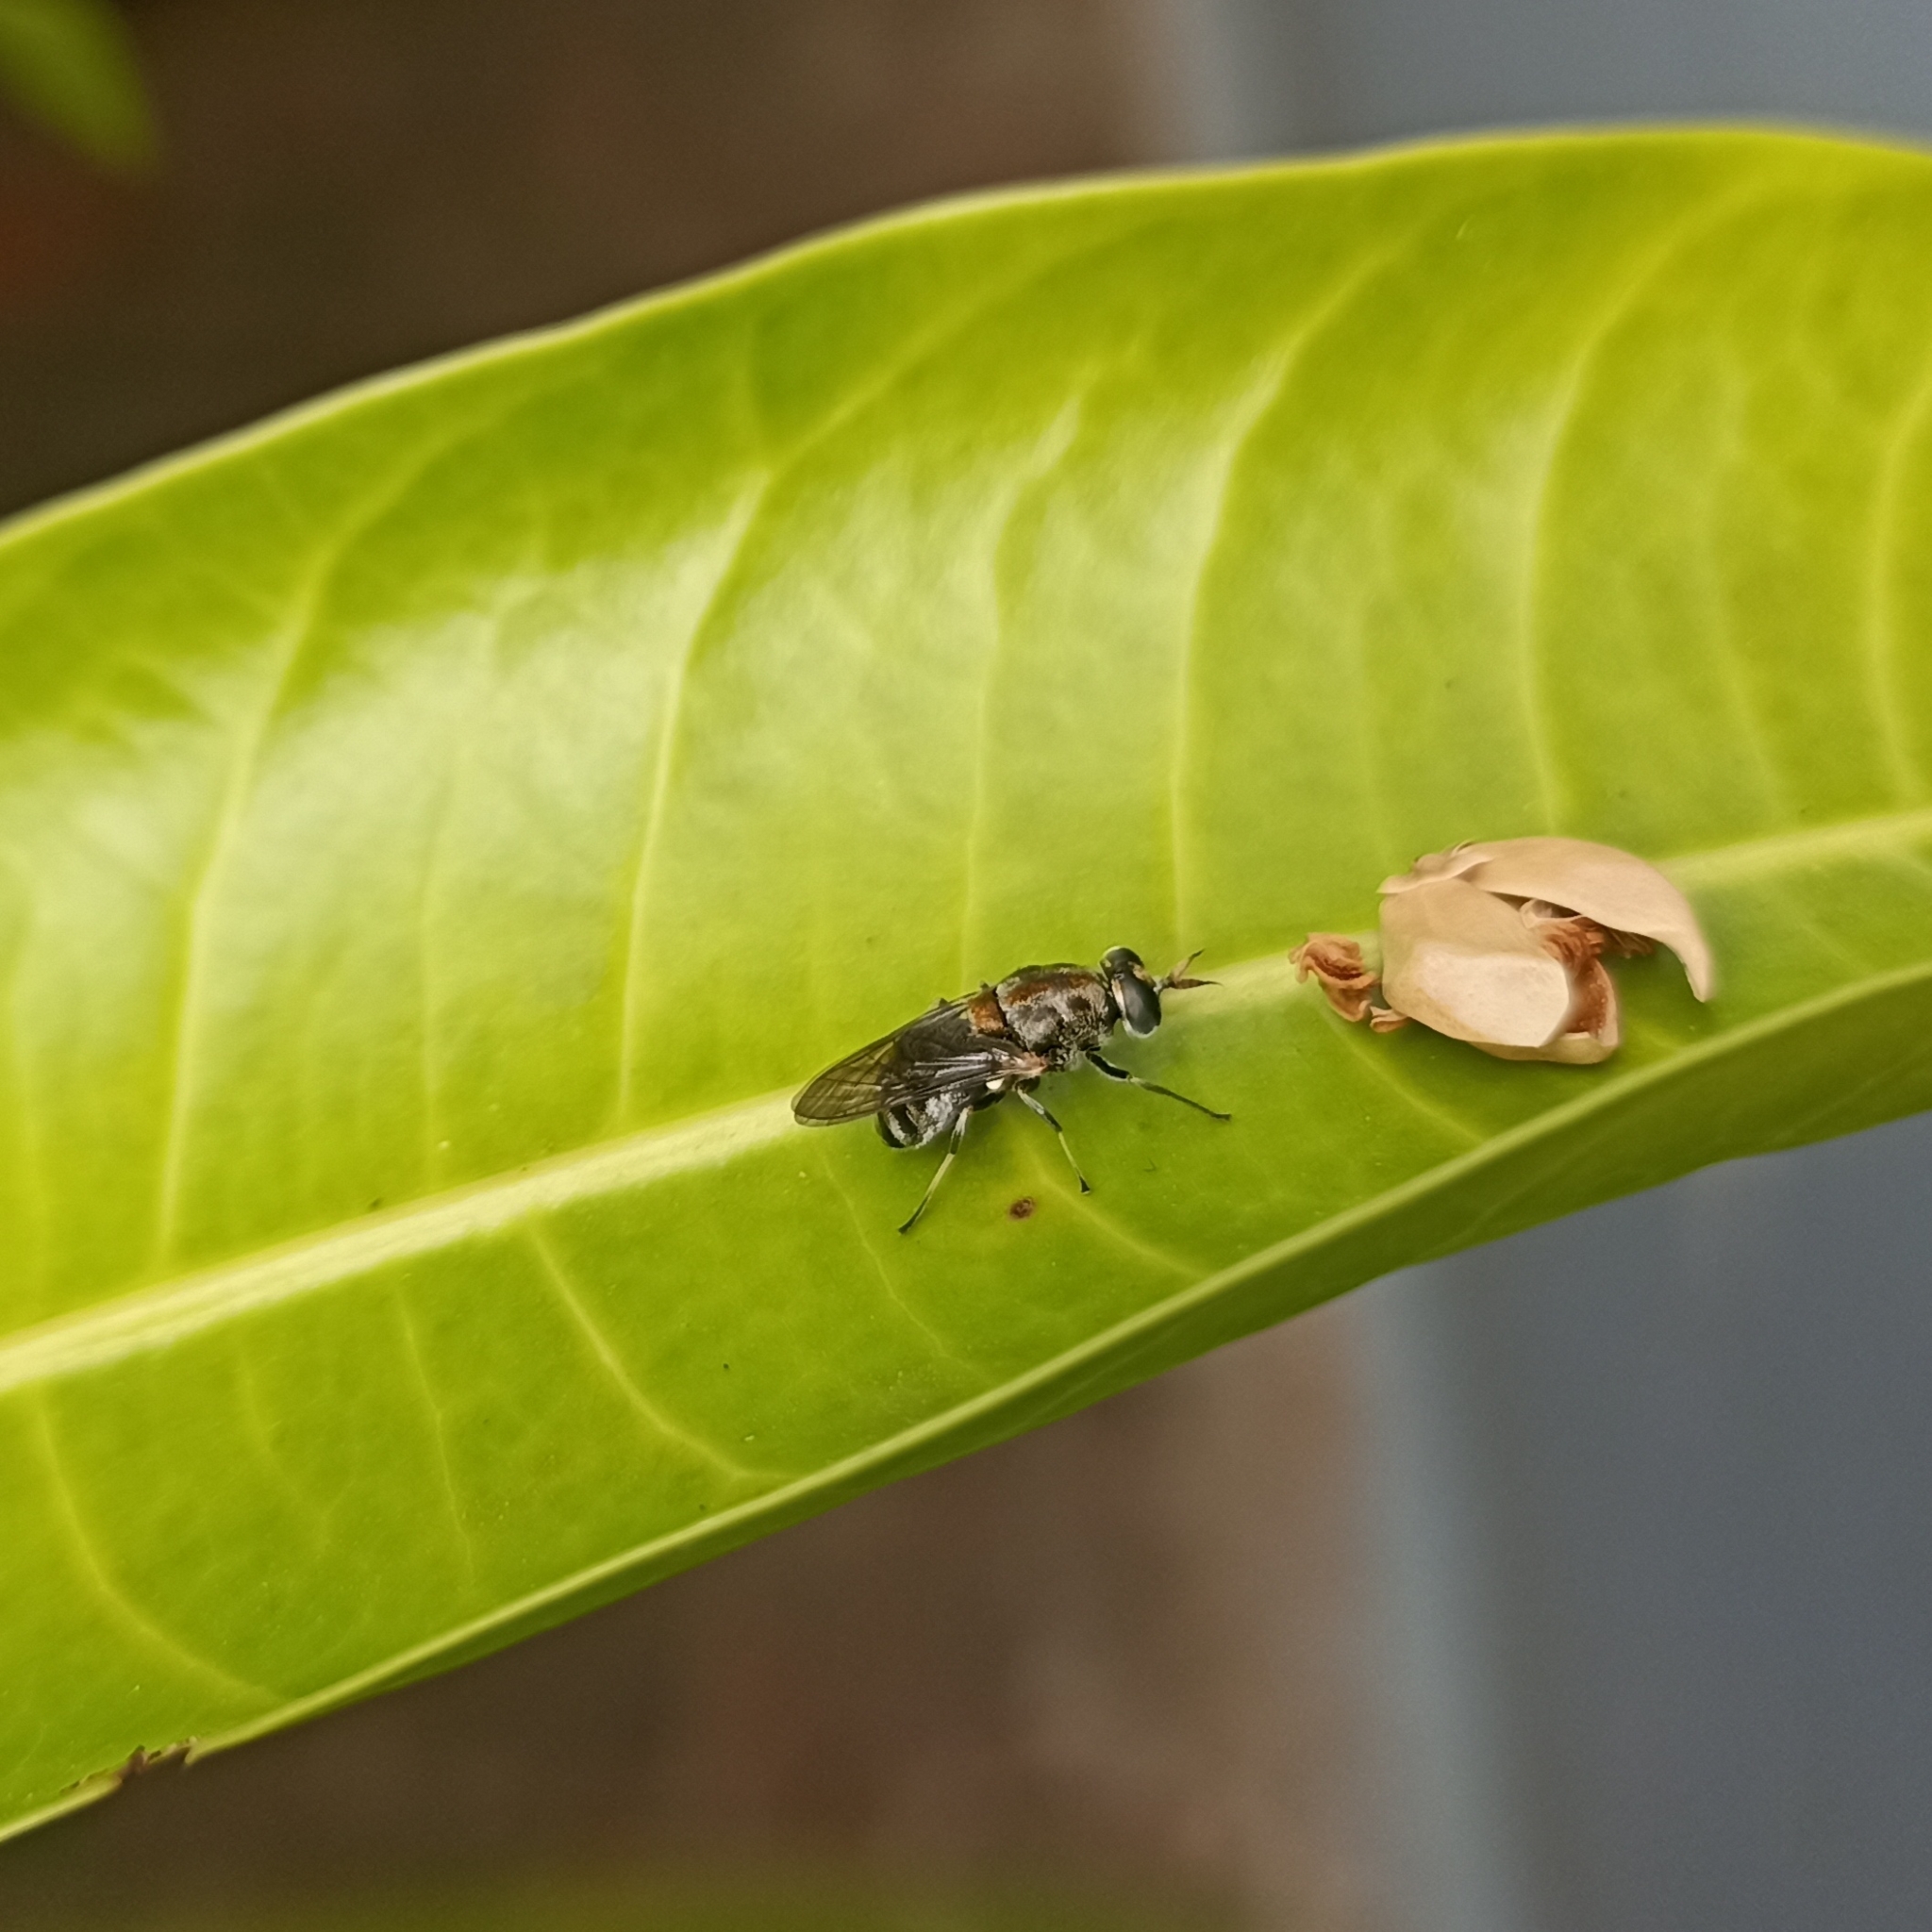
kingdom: Animalia
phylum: Arthropoda
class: Insecta
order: Diptera
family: Stratiomyidae
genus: Adoxomyia
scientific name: Adoxomyia heminopla
